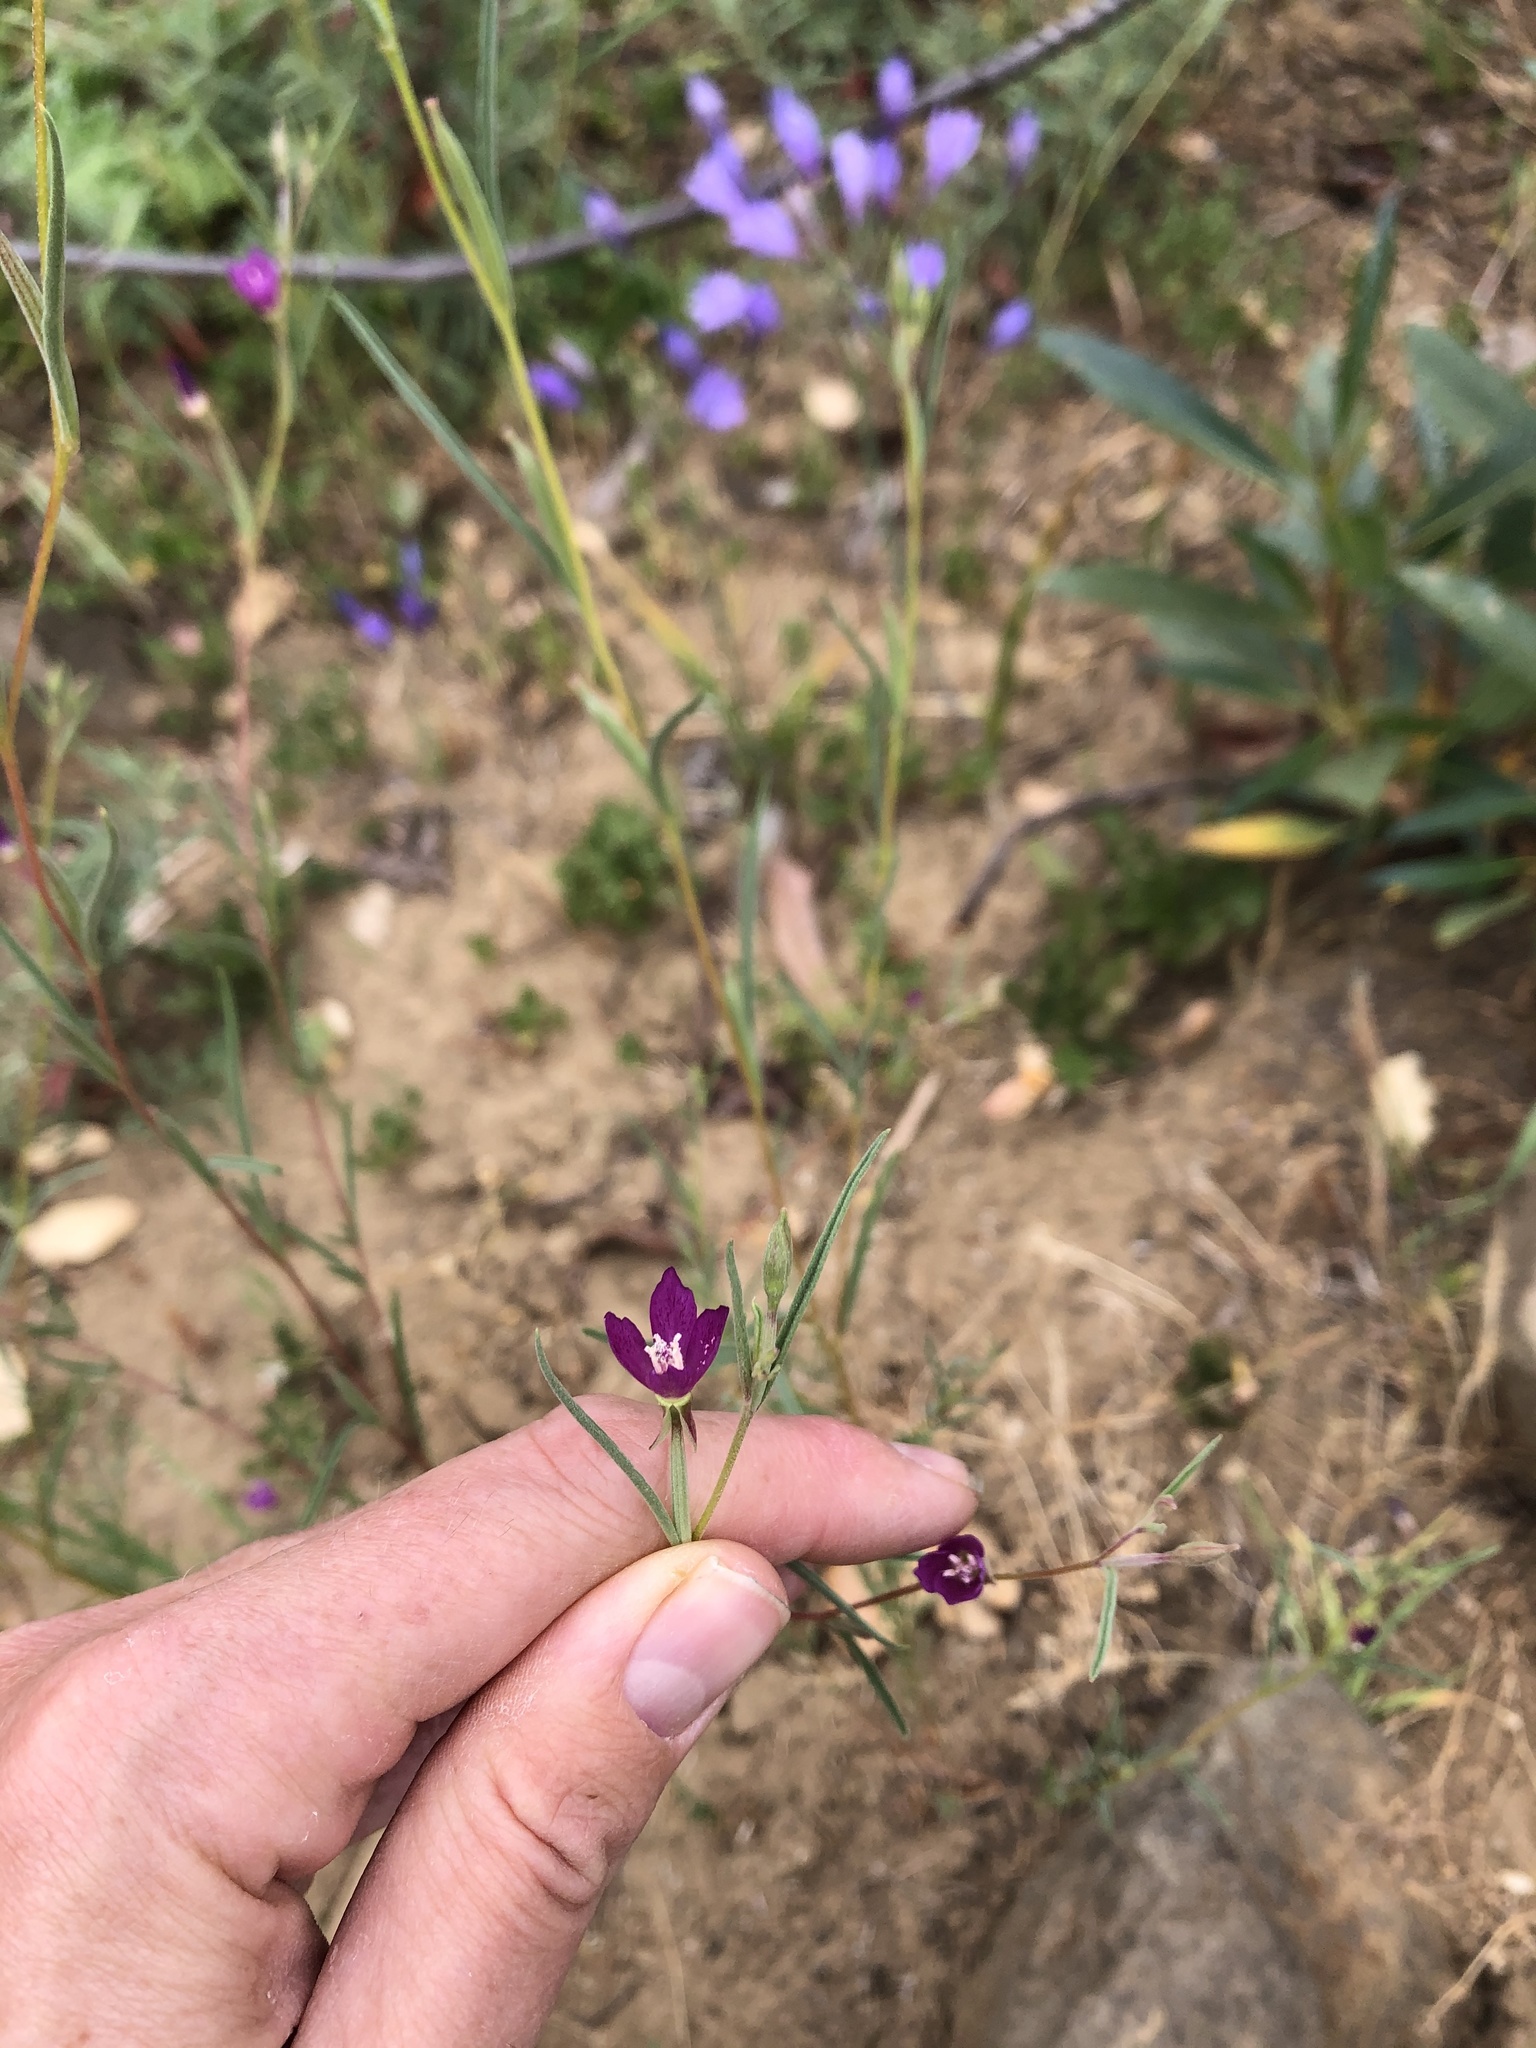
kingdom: Plantae
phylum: Tracheophyta
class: Magnoliopsida
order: Myrtales
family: Onagraceae
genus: Clarkia
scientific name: Clarkia purpurea
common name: Purple clarkia
